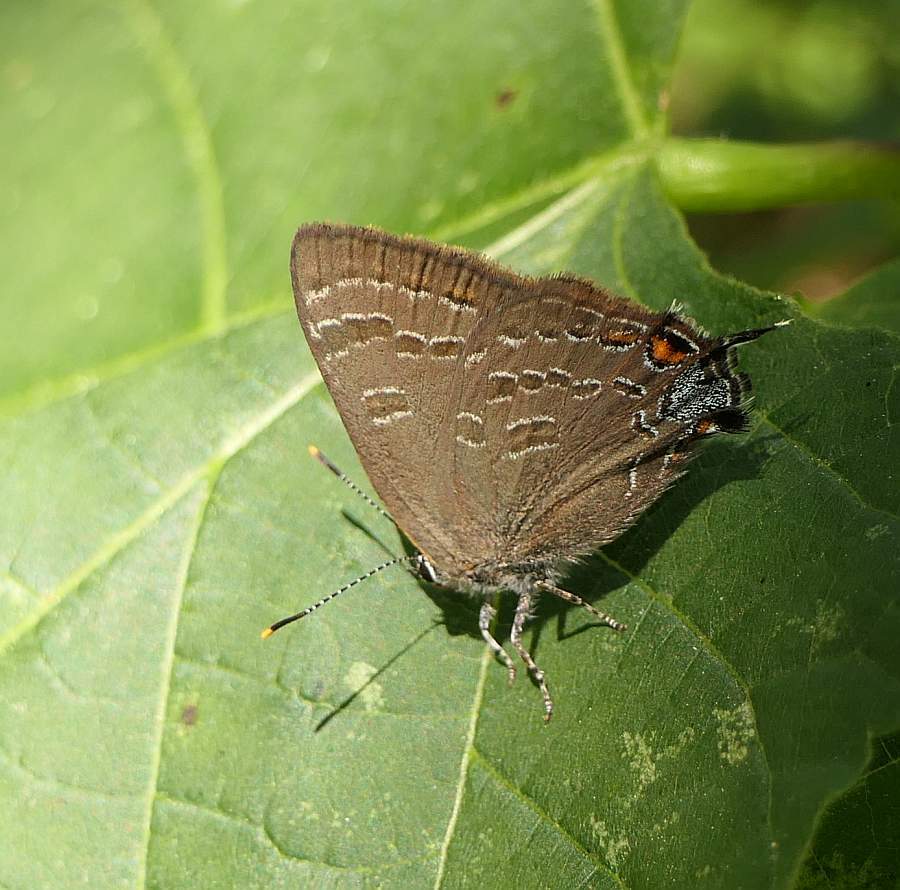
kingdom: Animalia
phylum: Arthropoda
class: Insecta
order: Lepidoptera
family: Lycaenidae
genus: Strymon
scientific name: Strymon caryaevorus
